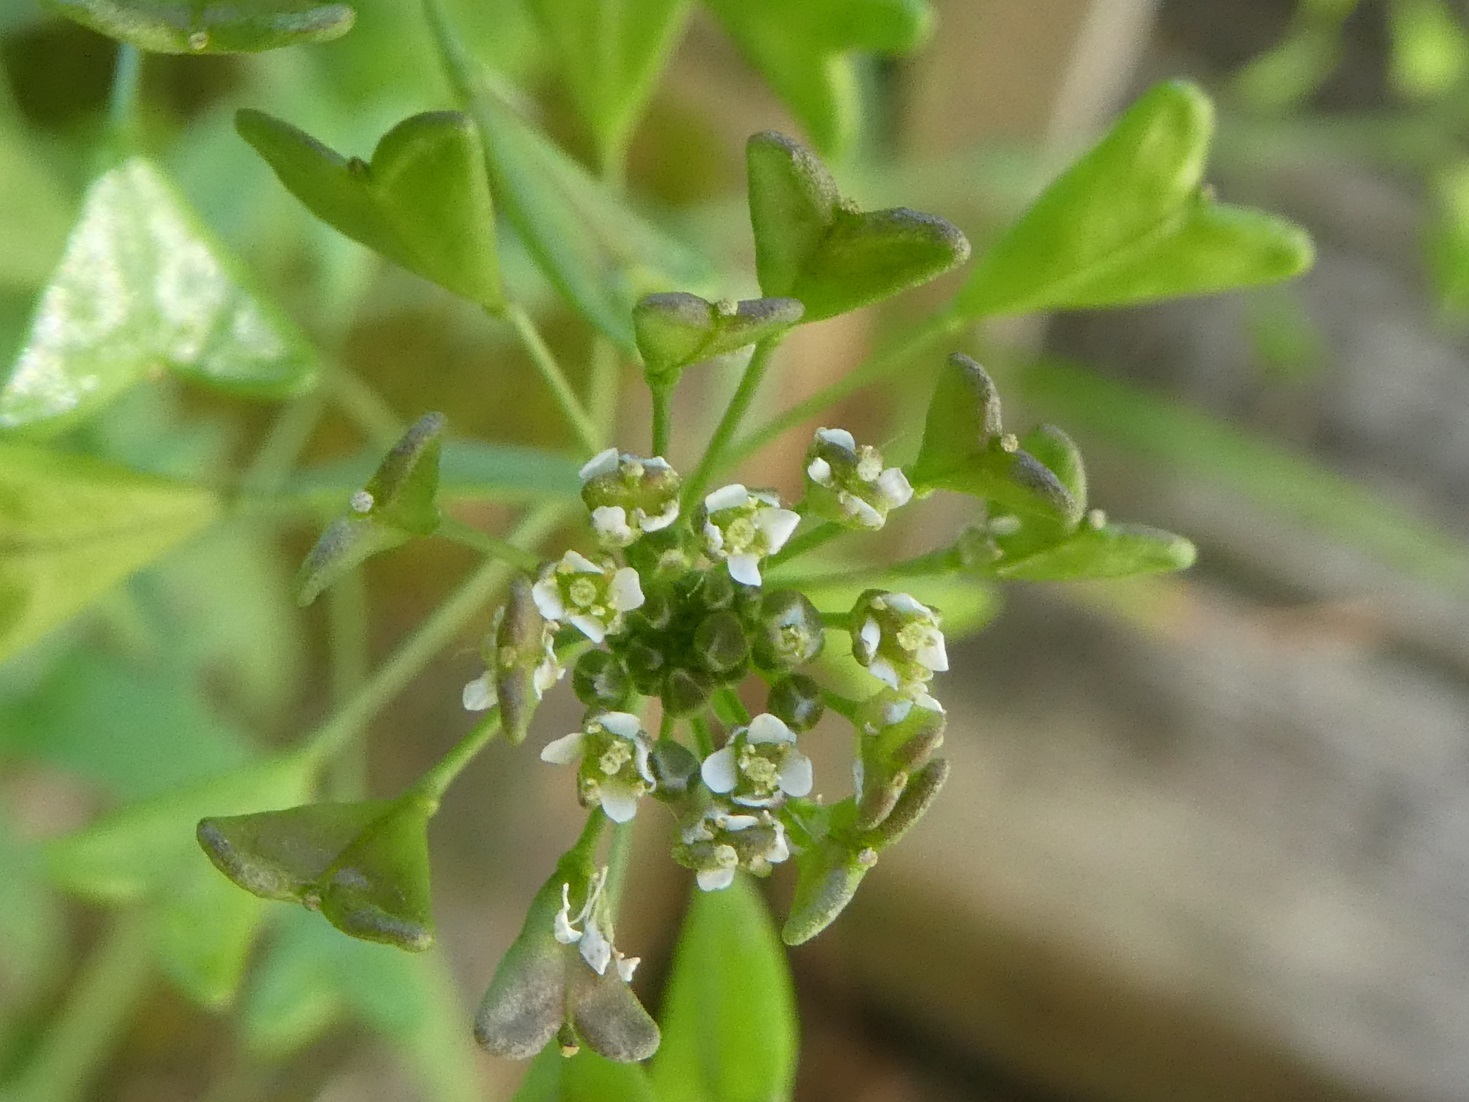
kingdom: Plantae
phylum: Tracheophyta
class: Magnoliopsida
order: Brassicales
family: Brassicaceae
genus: Capsella
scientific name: Capsella bursa-pastoris
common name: Shepherd's purse
